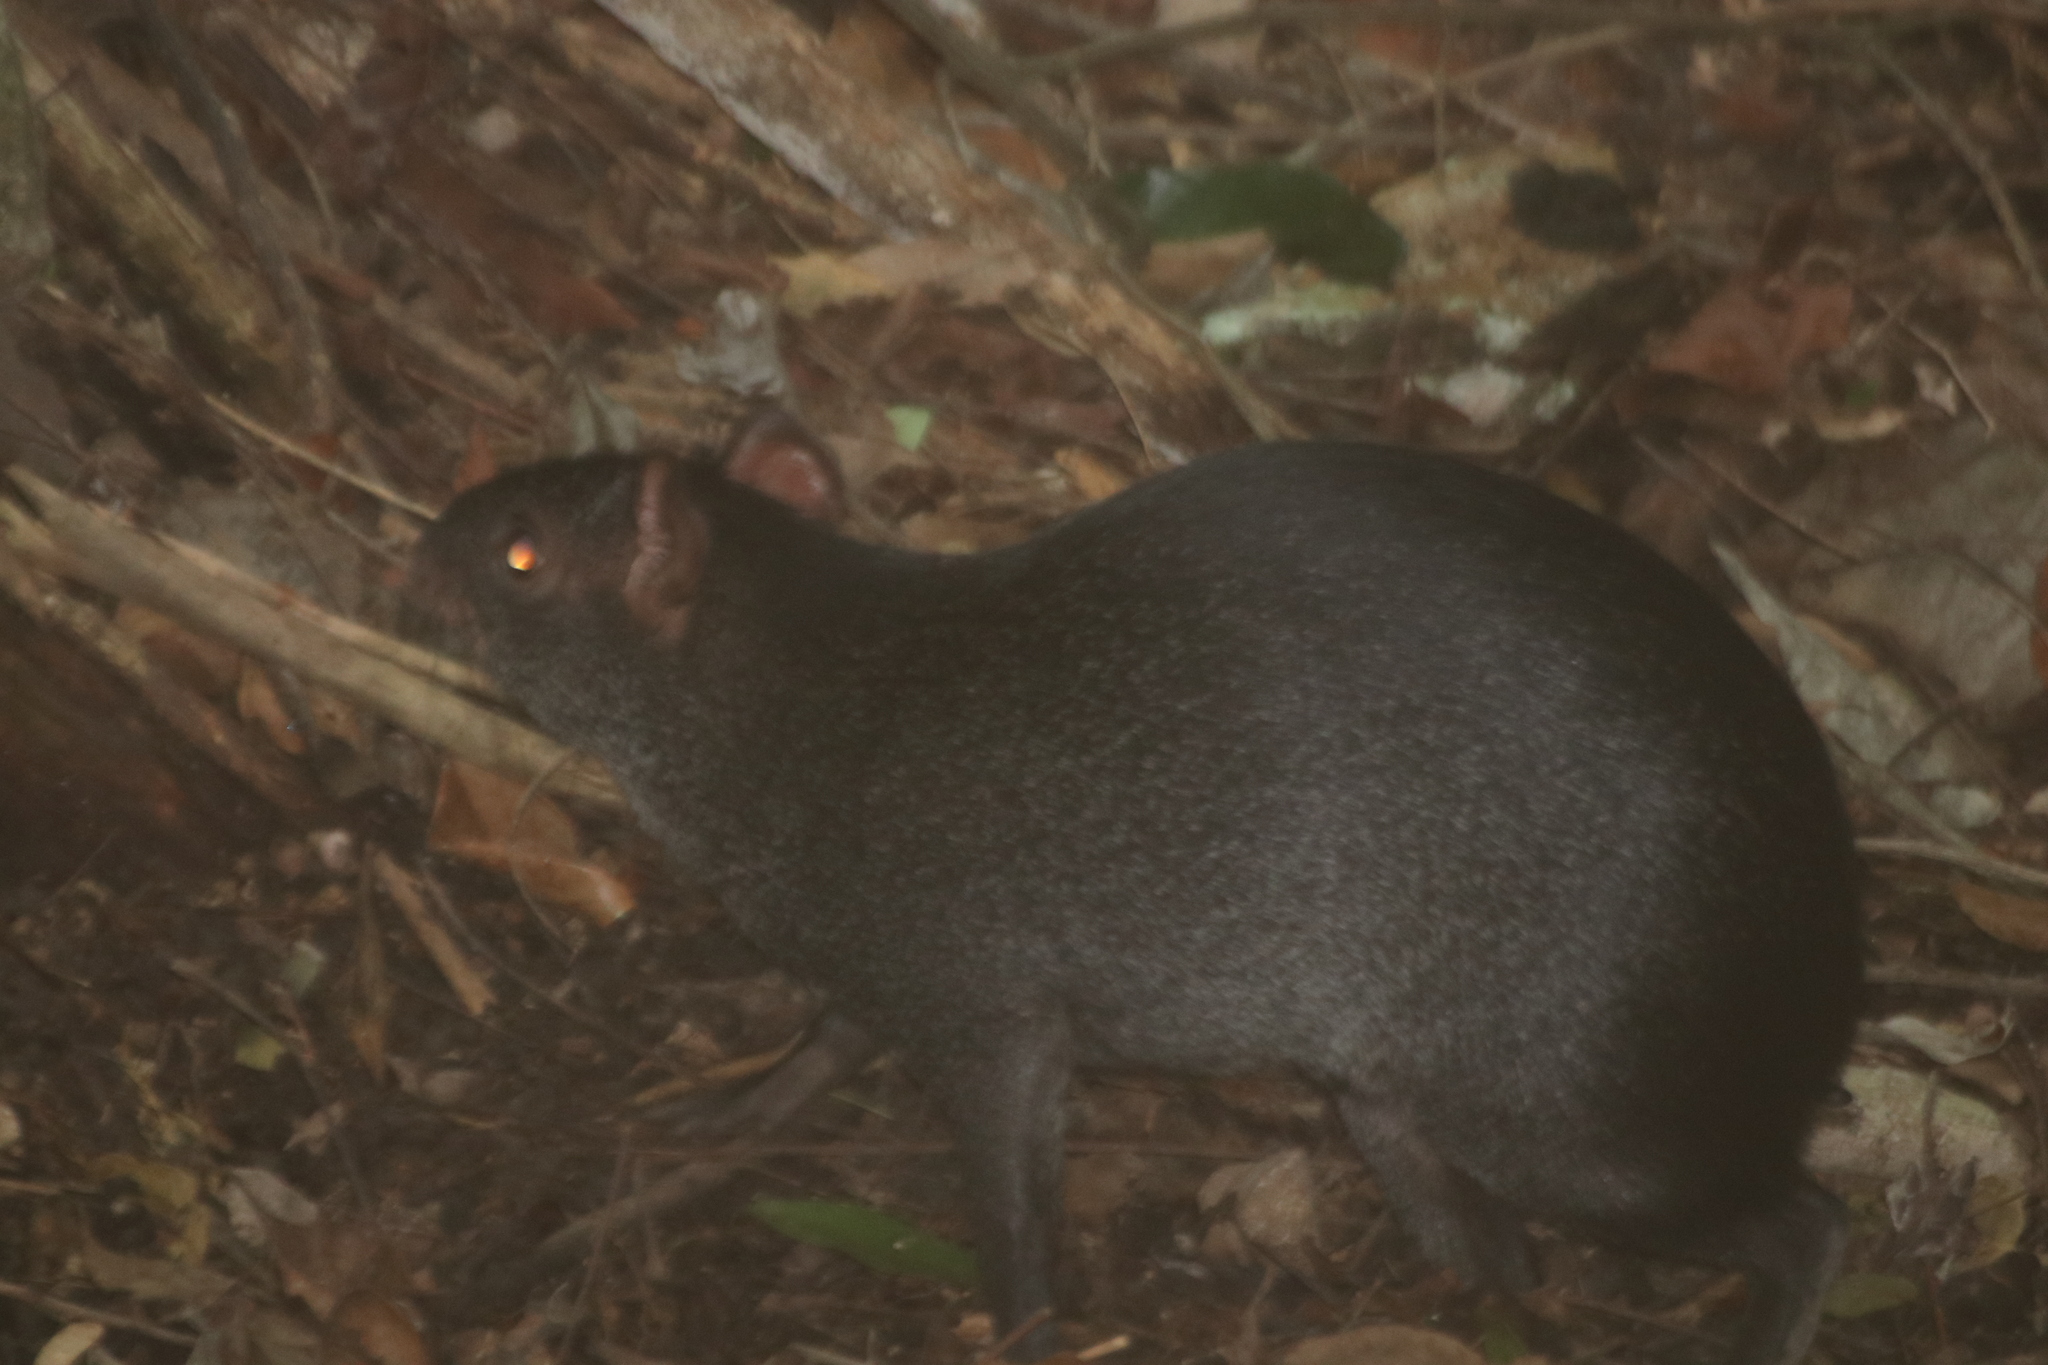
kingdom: Animalia
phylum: Chordata
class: Mammalia
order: Rodentia
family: Dasyproctidae
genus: Dasyprocta
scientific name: Dasyprocta mexicana
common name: Mexican agouti
